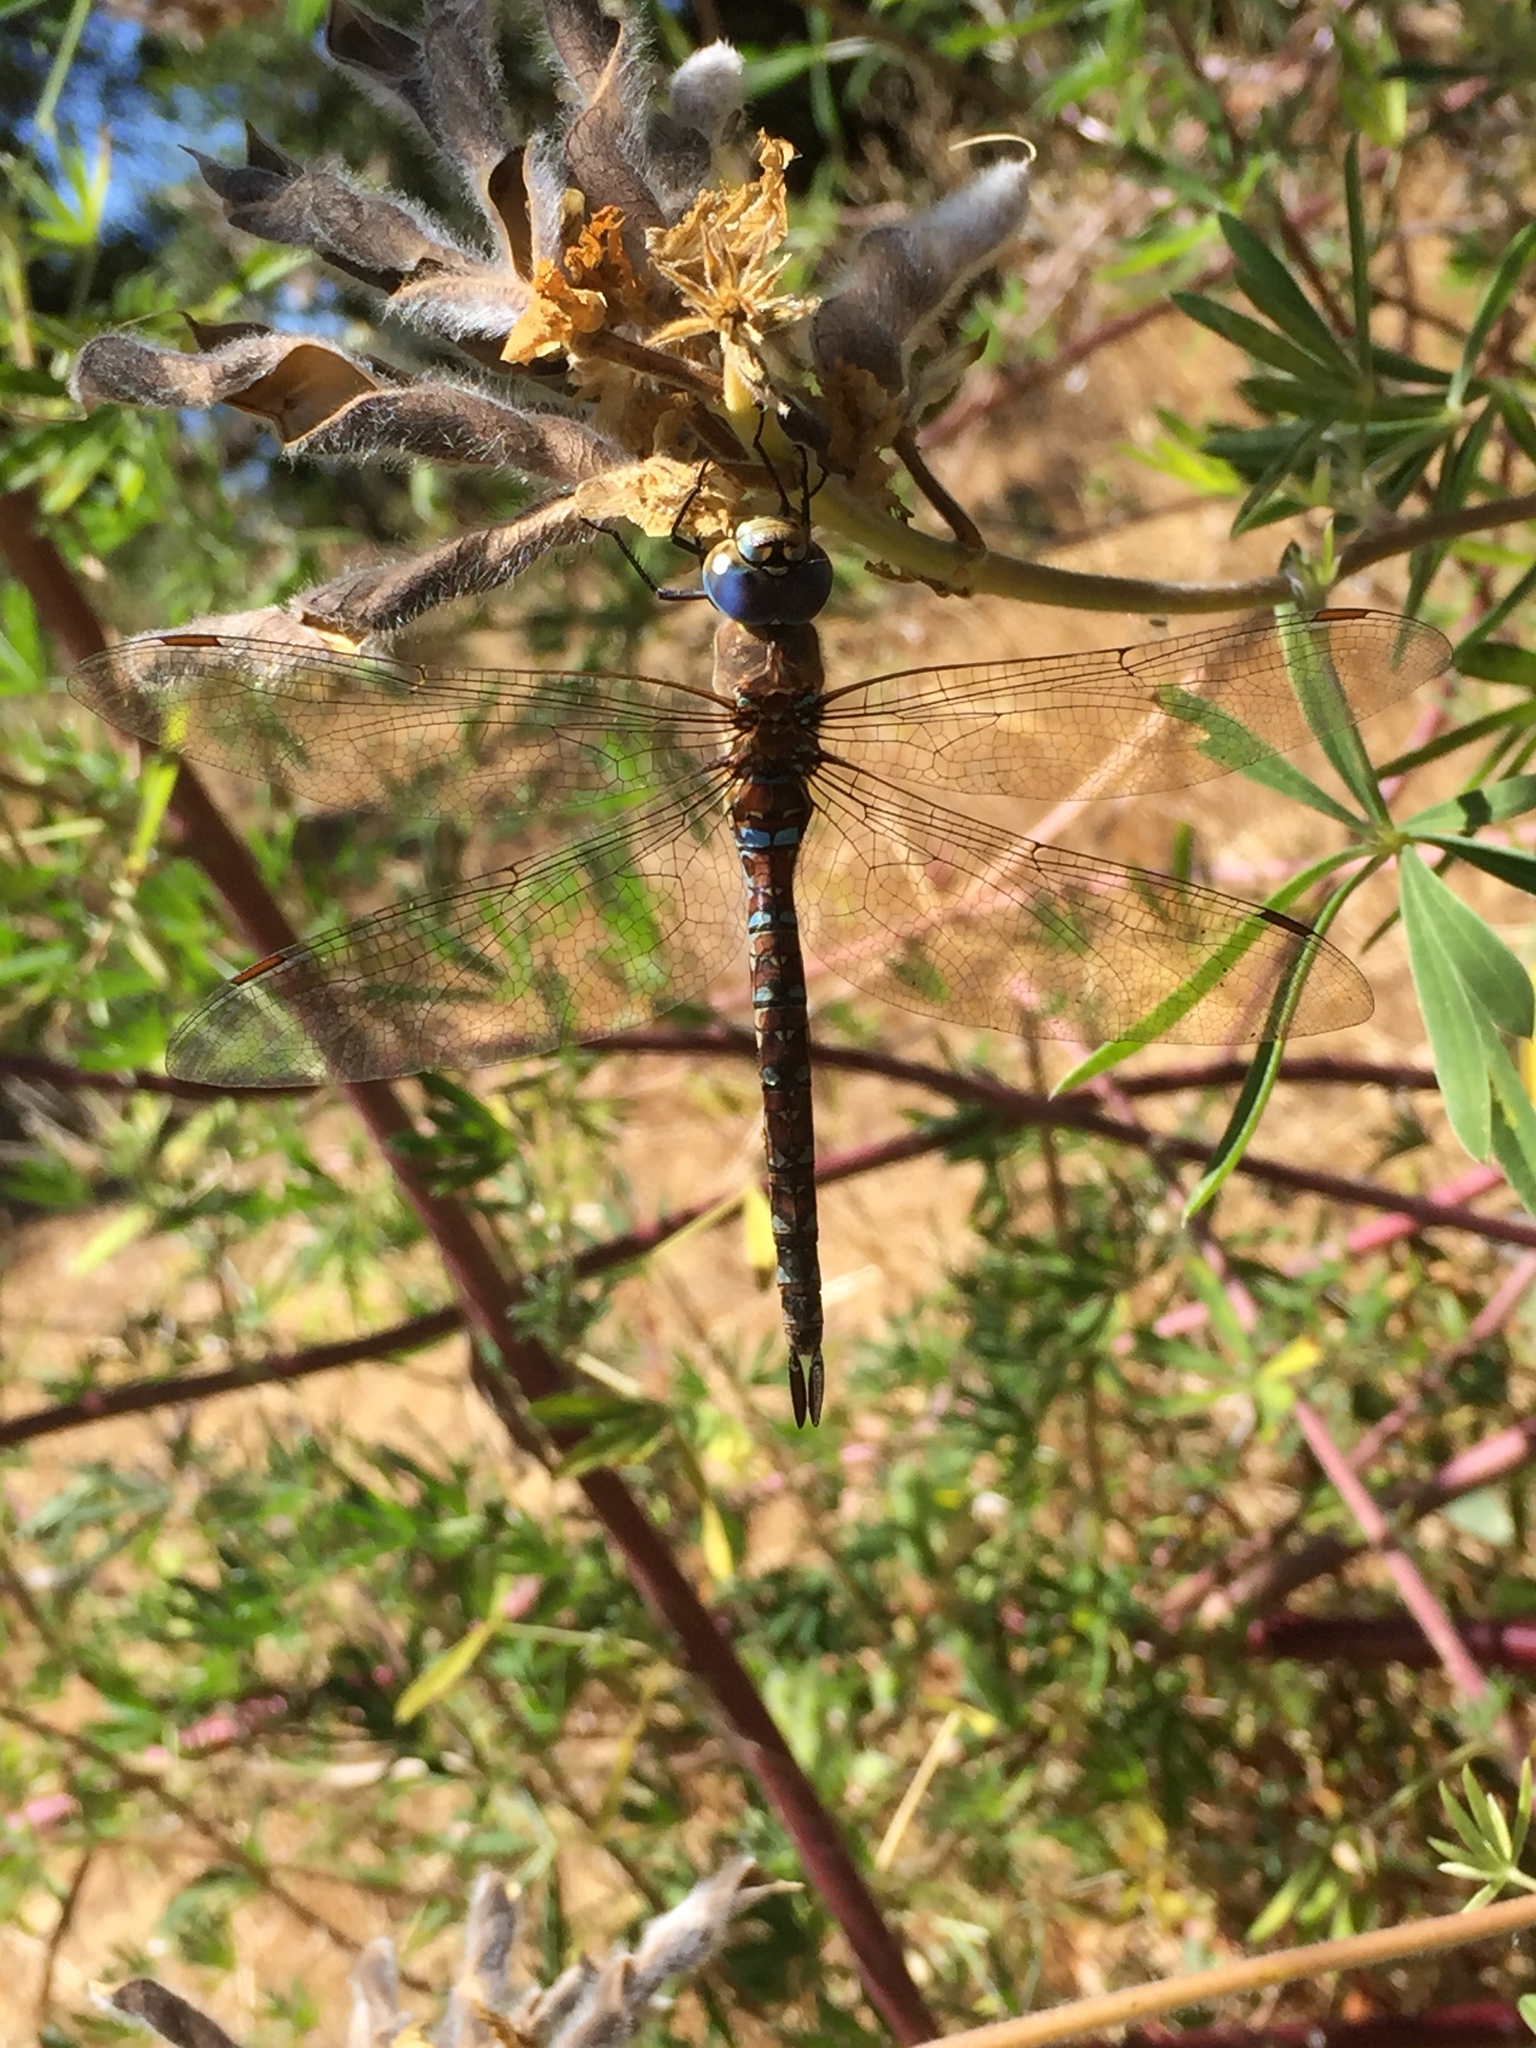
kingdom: Animalia
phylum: Arthropoda
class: Insecta
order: Odonata
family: Aeshnidae
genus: Rhionaeschna
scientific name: Rhionaeschna multicolor
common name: Blue-eyed darner
